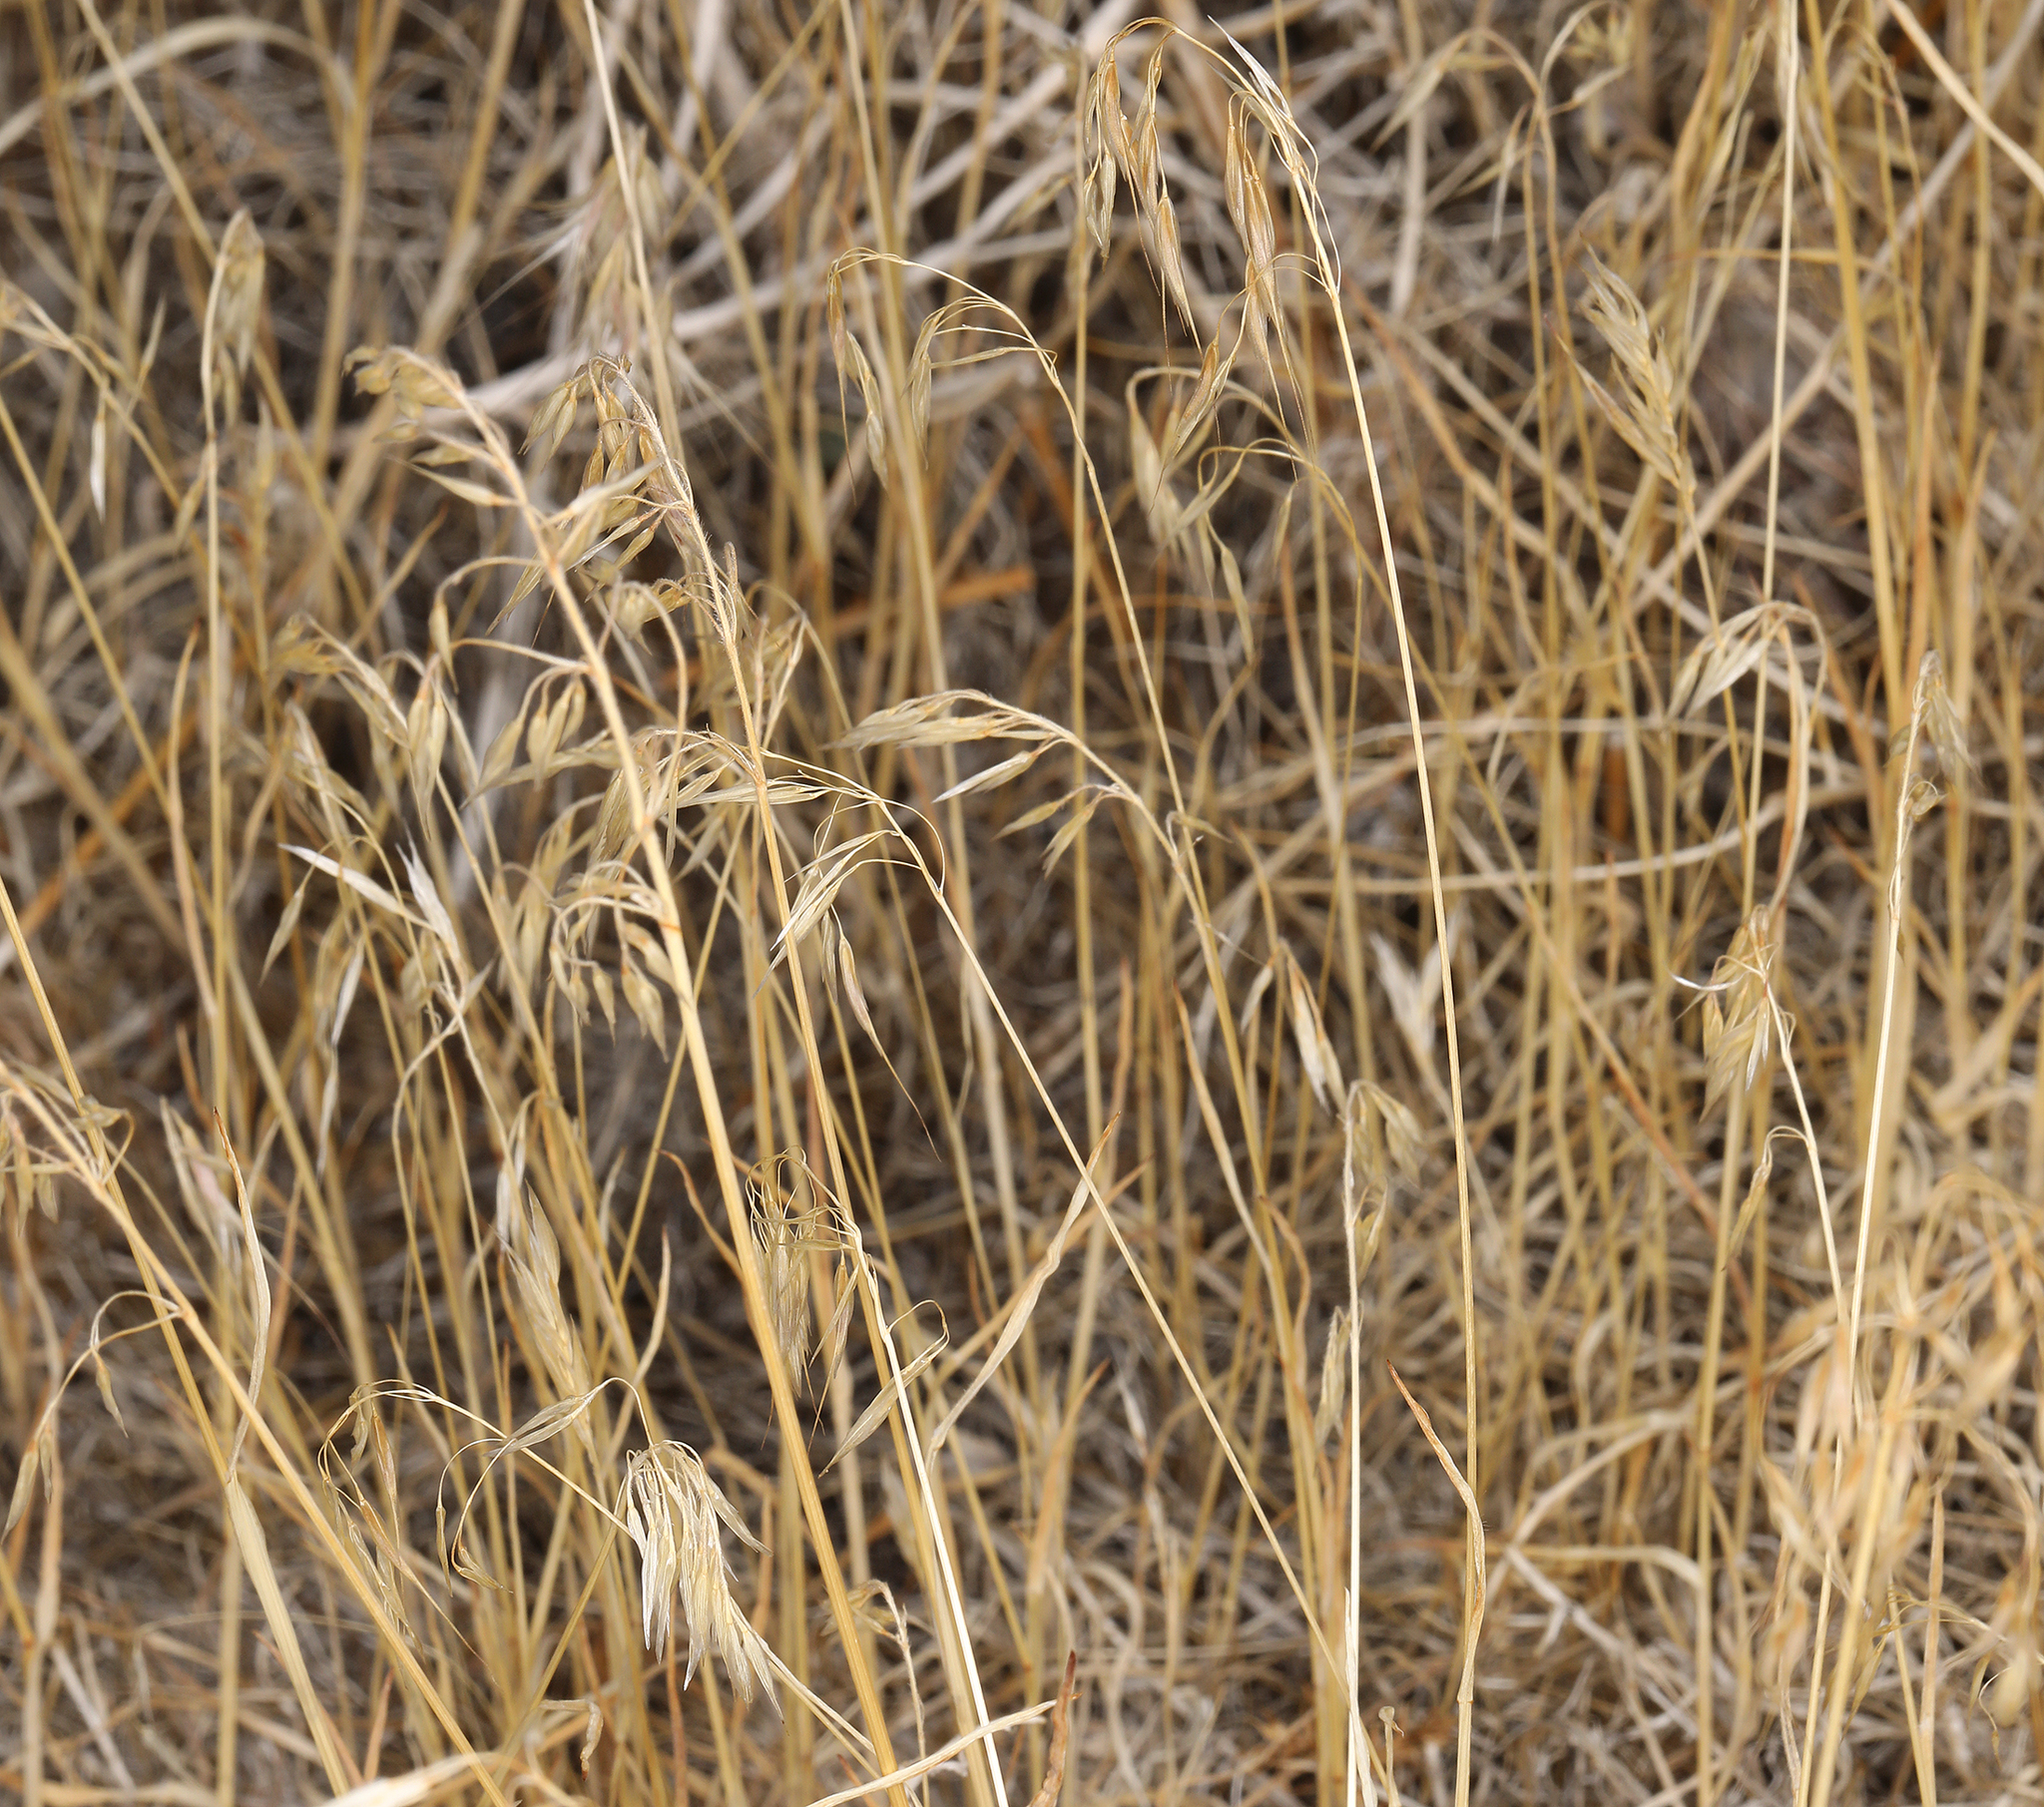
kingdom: Plantae
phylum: Tracheophyta
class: Liliopsida
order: Poales
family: Poaceae
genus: Bromus
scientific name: Bromus tectorum
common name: Cheatgrass
